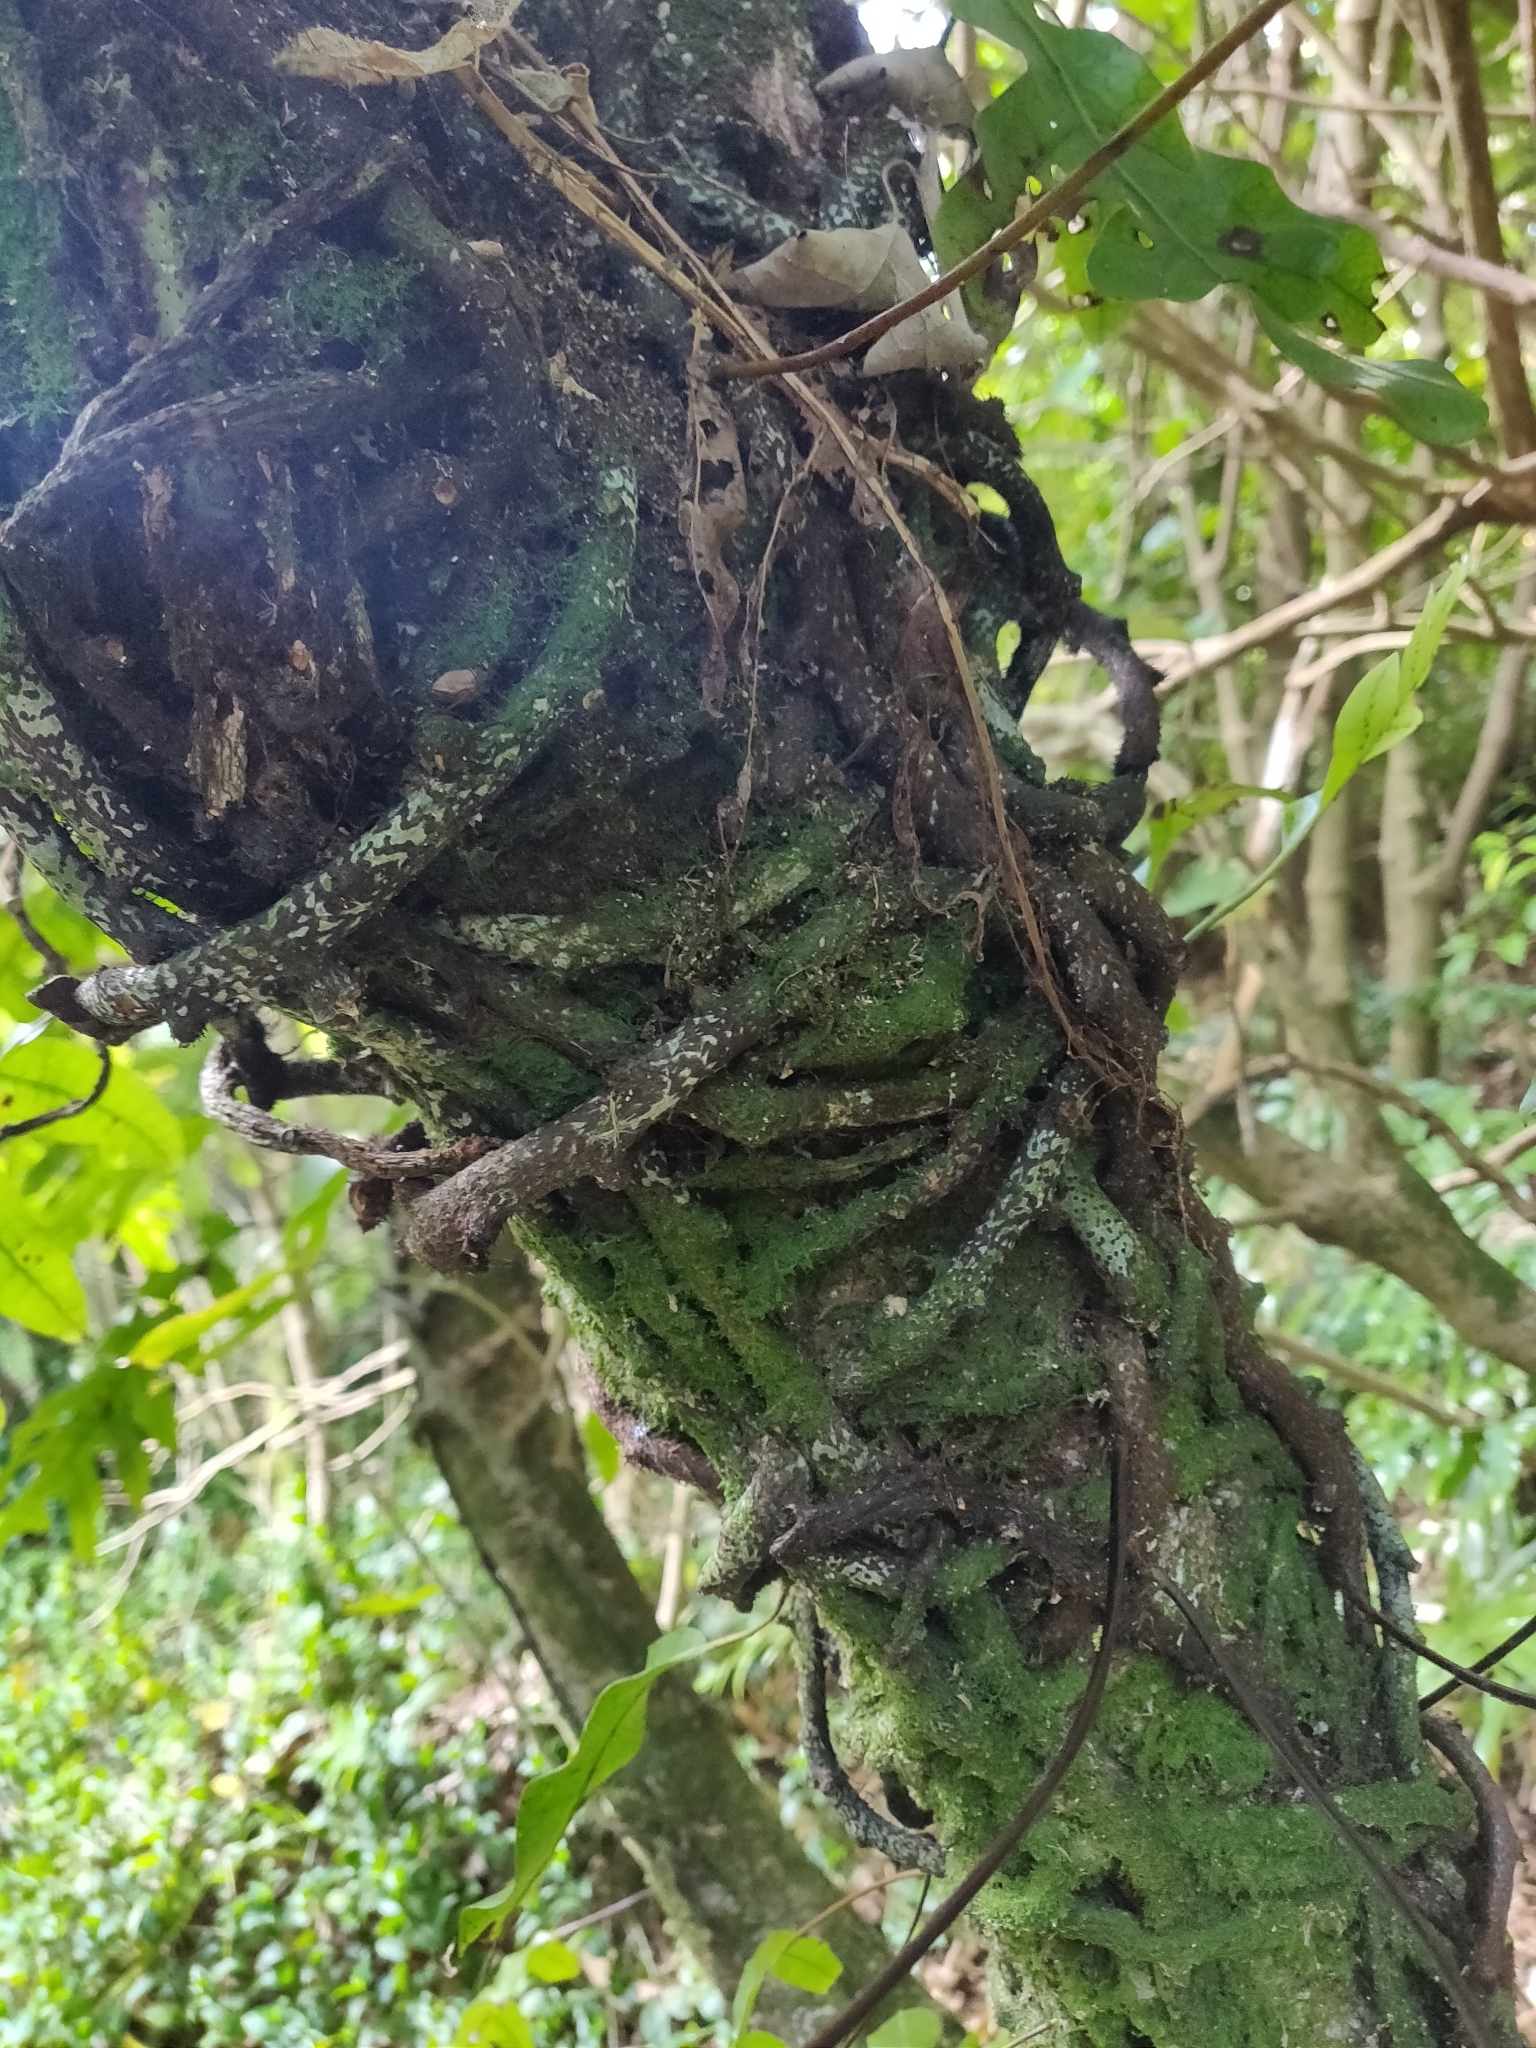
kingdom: Plantae
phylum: Tracheophyta
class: Polypodiopsida
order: Polypodiales
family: Polypodiaceae
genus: Lecanopteris
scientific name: Lecanopteris pustulata
